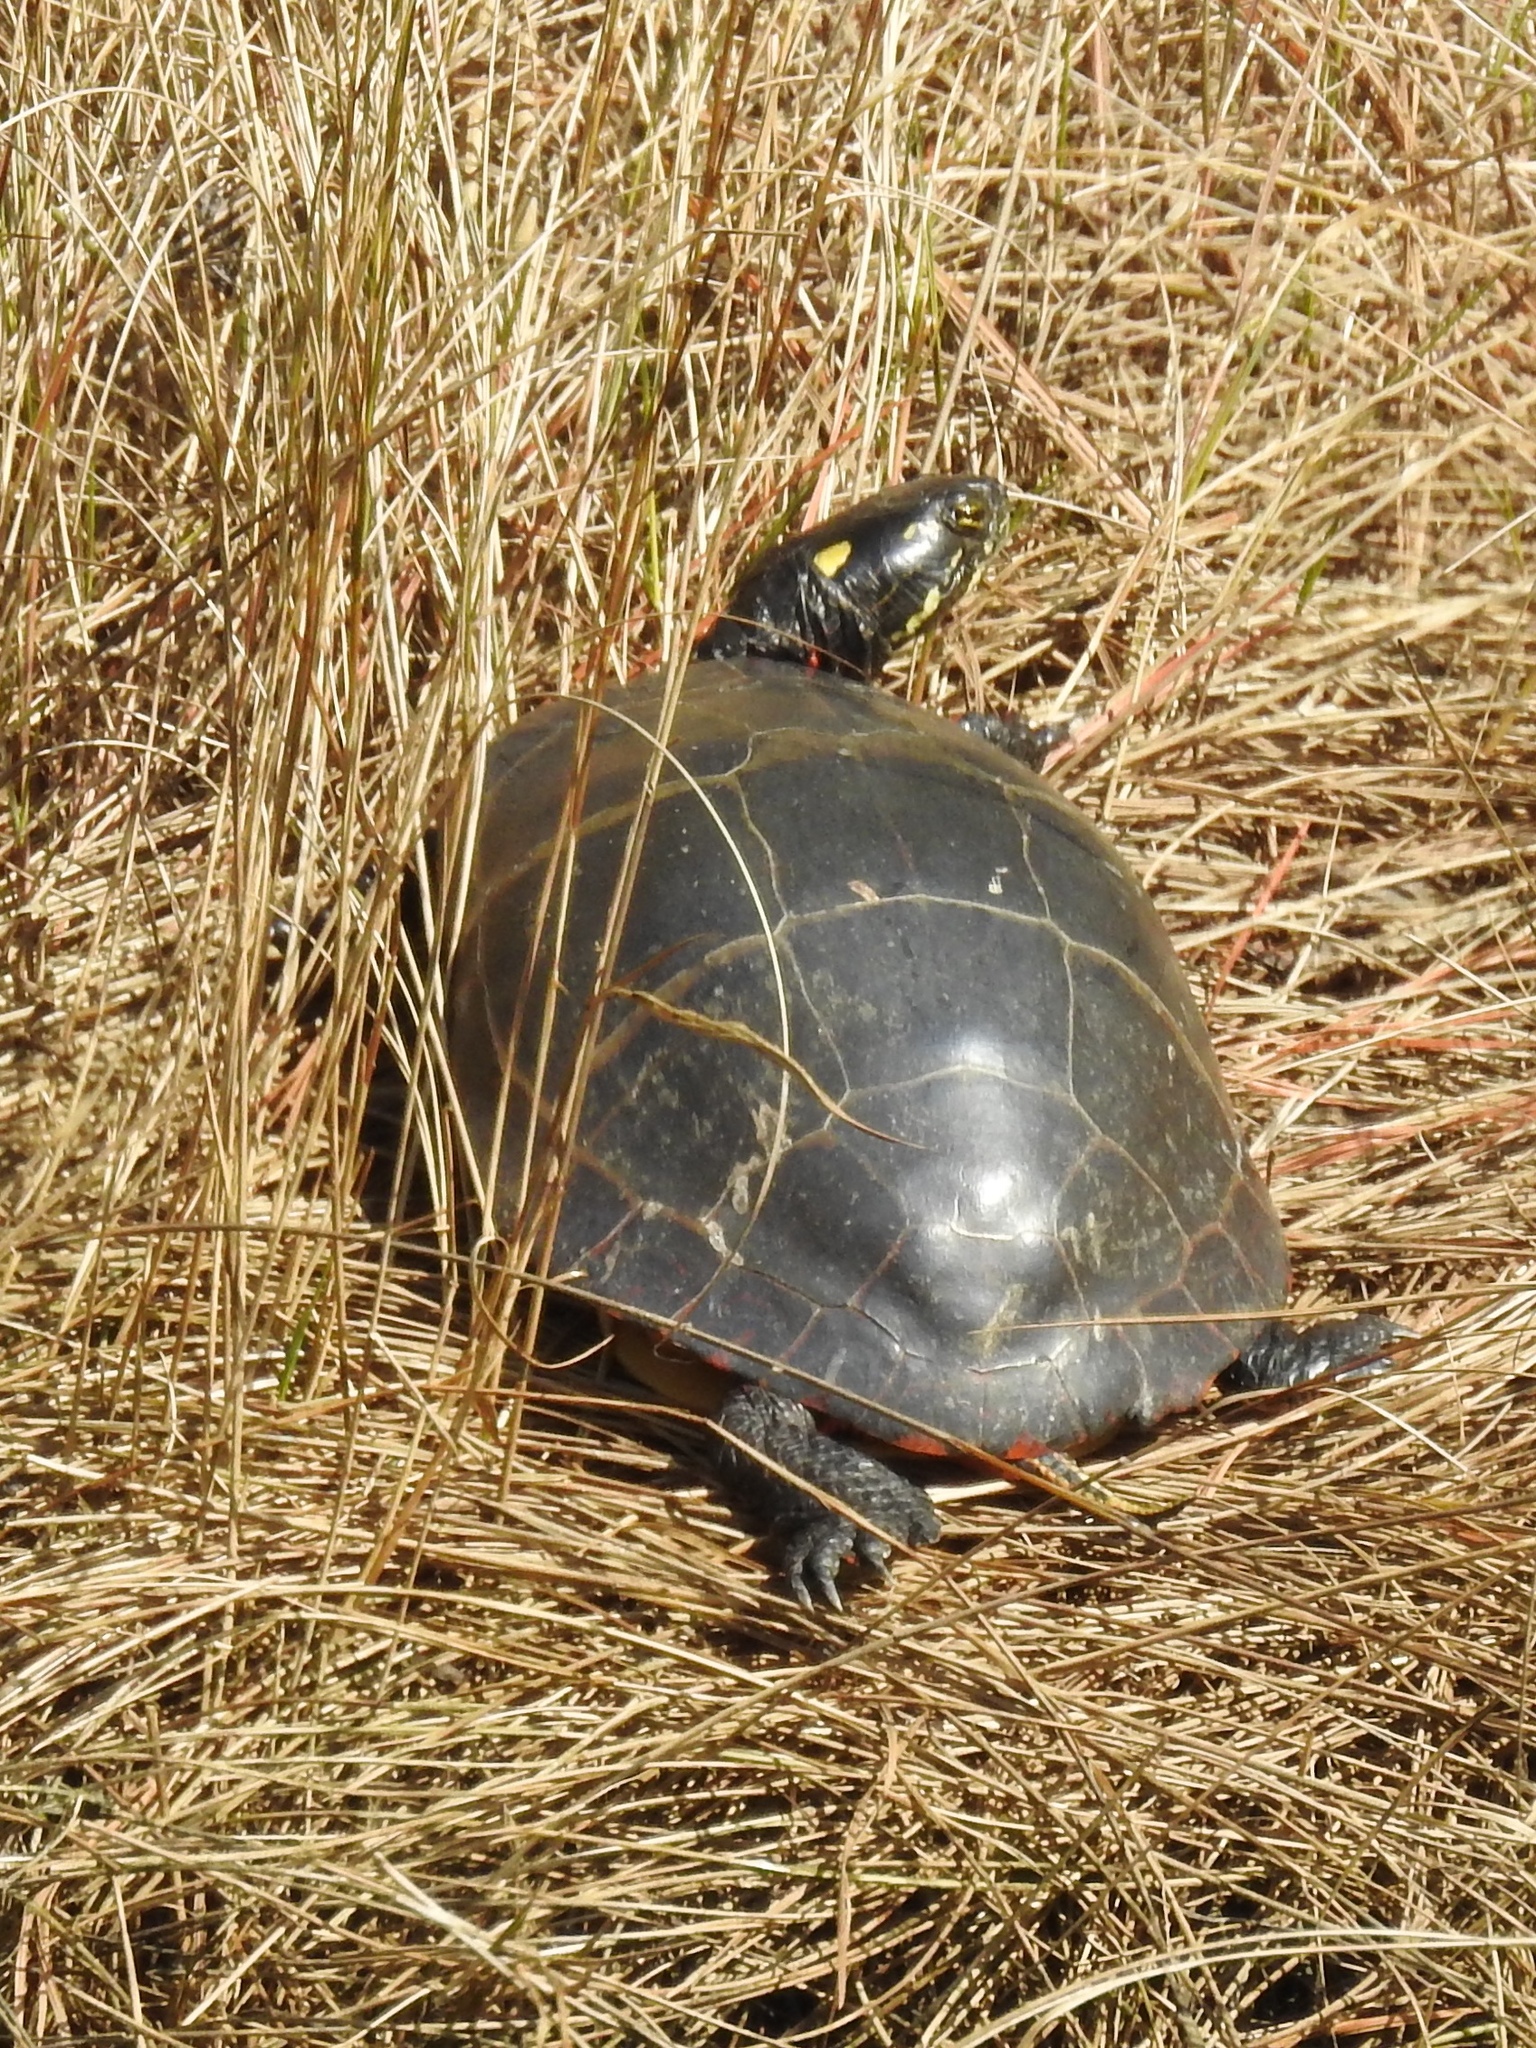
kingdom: Animalia
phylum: Chordata
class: Testudines
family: Emydidae
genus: Chrysemys
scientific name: Chrysemys picta
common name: Painted turtle
